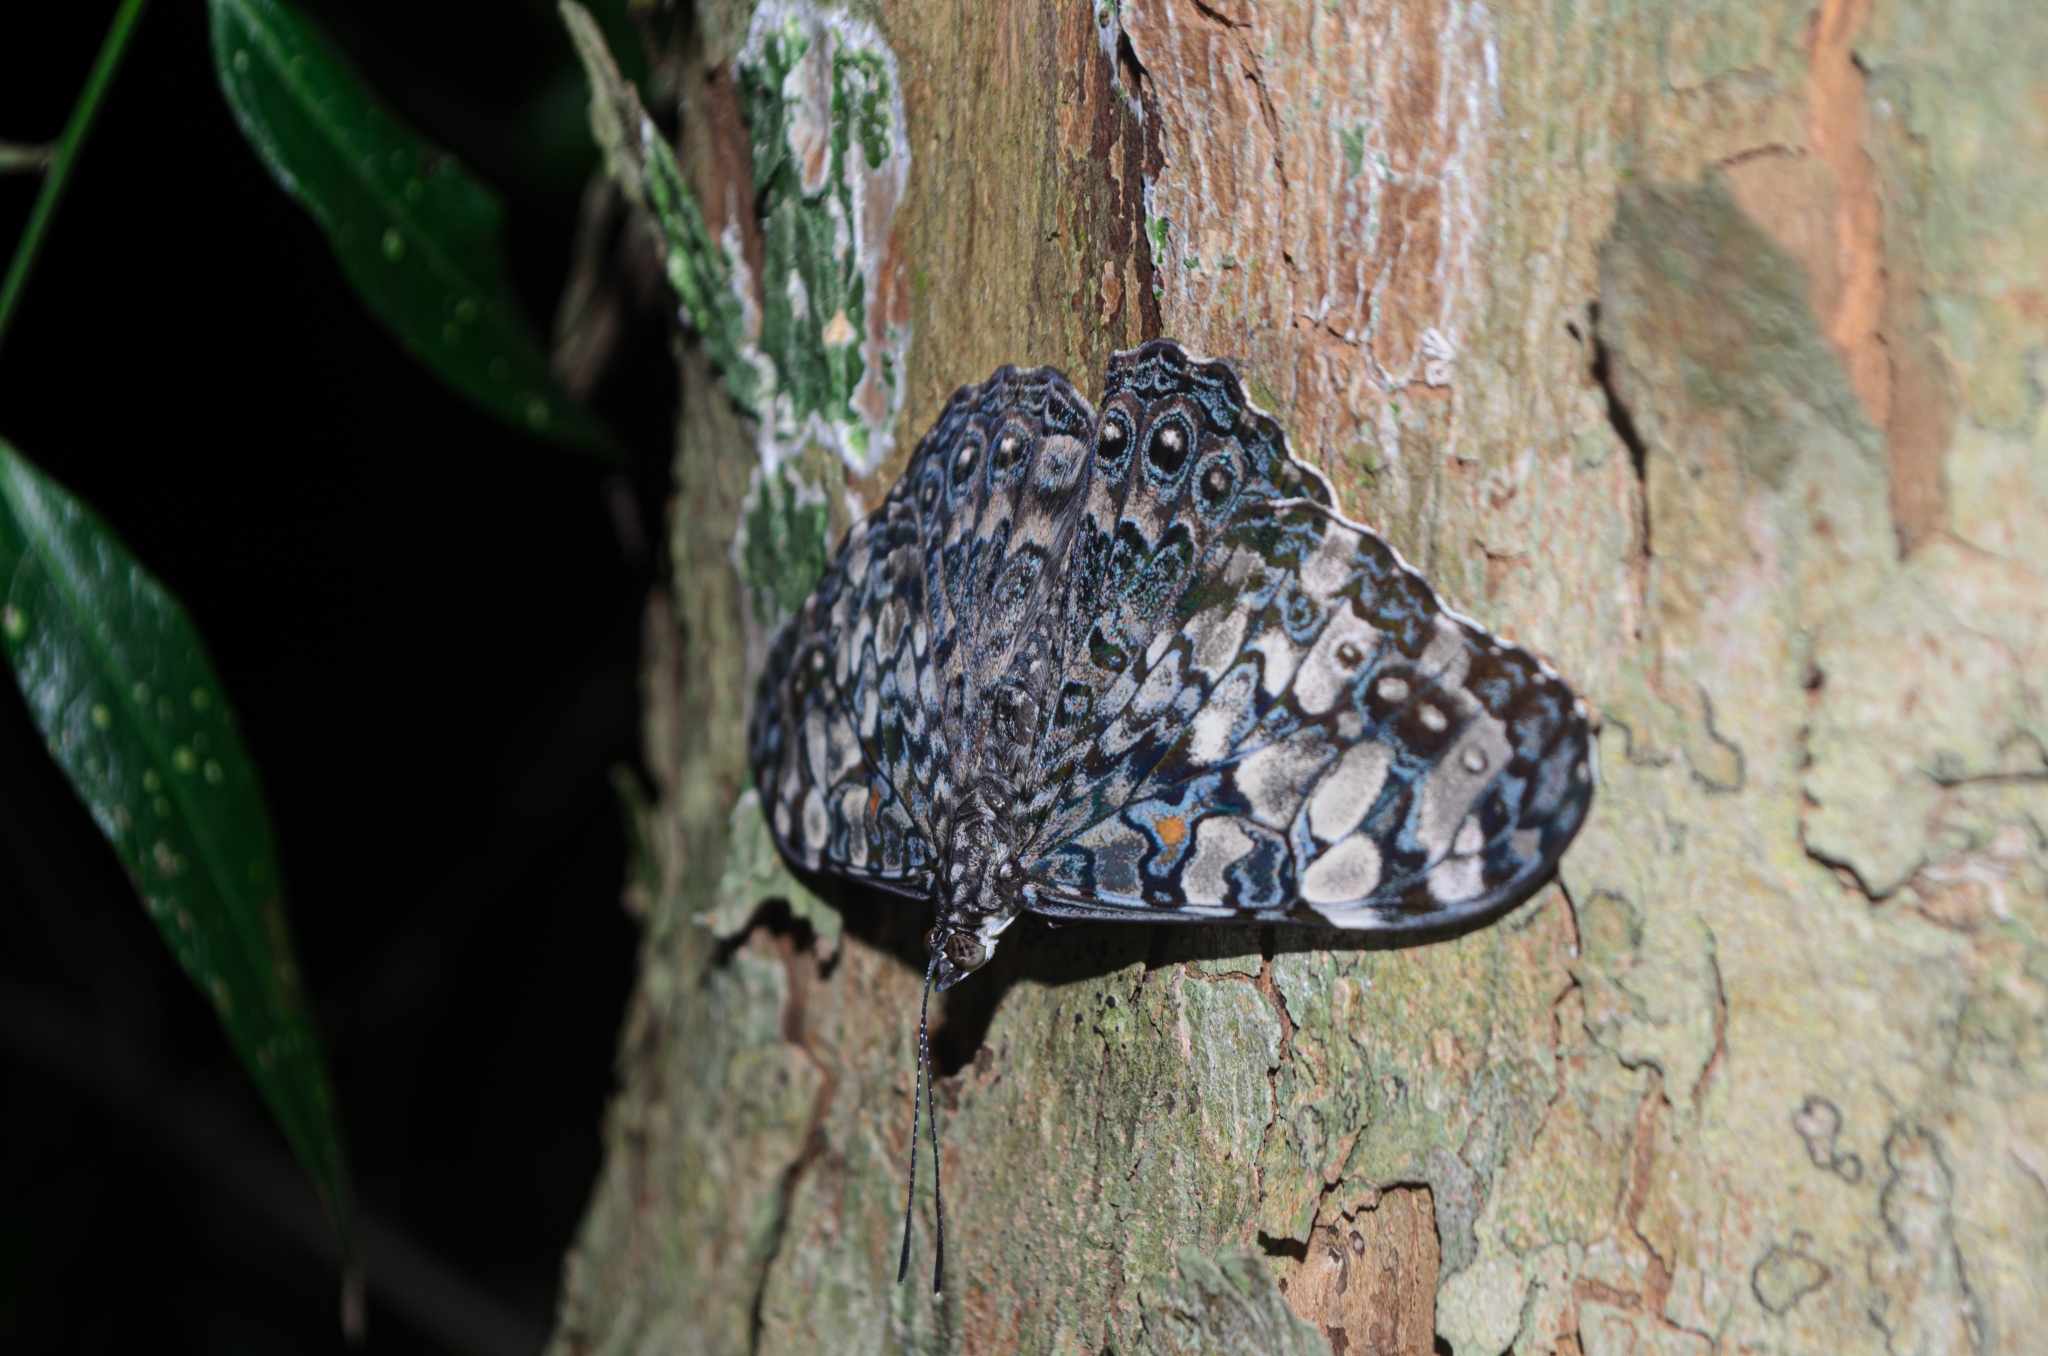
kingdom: Animalia
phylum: Arthropoda
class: Insecta
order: Lepidoptera
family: Nymphalidae
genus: Hamadryas
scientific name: Hamadryas epinome
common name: Epinome cracker
